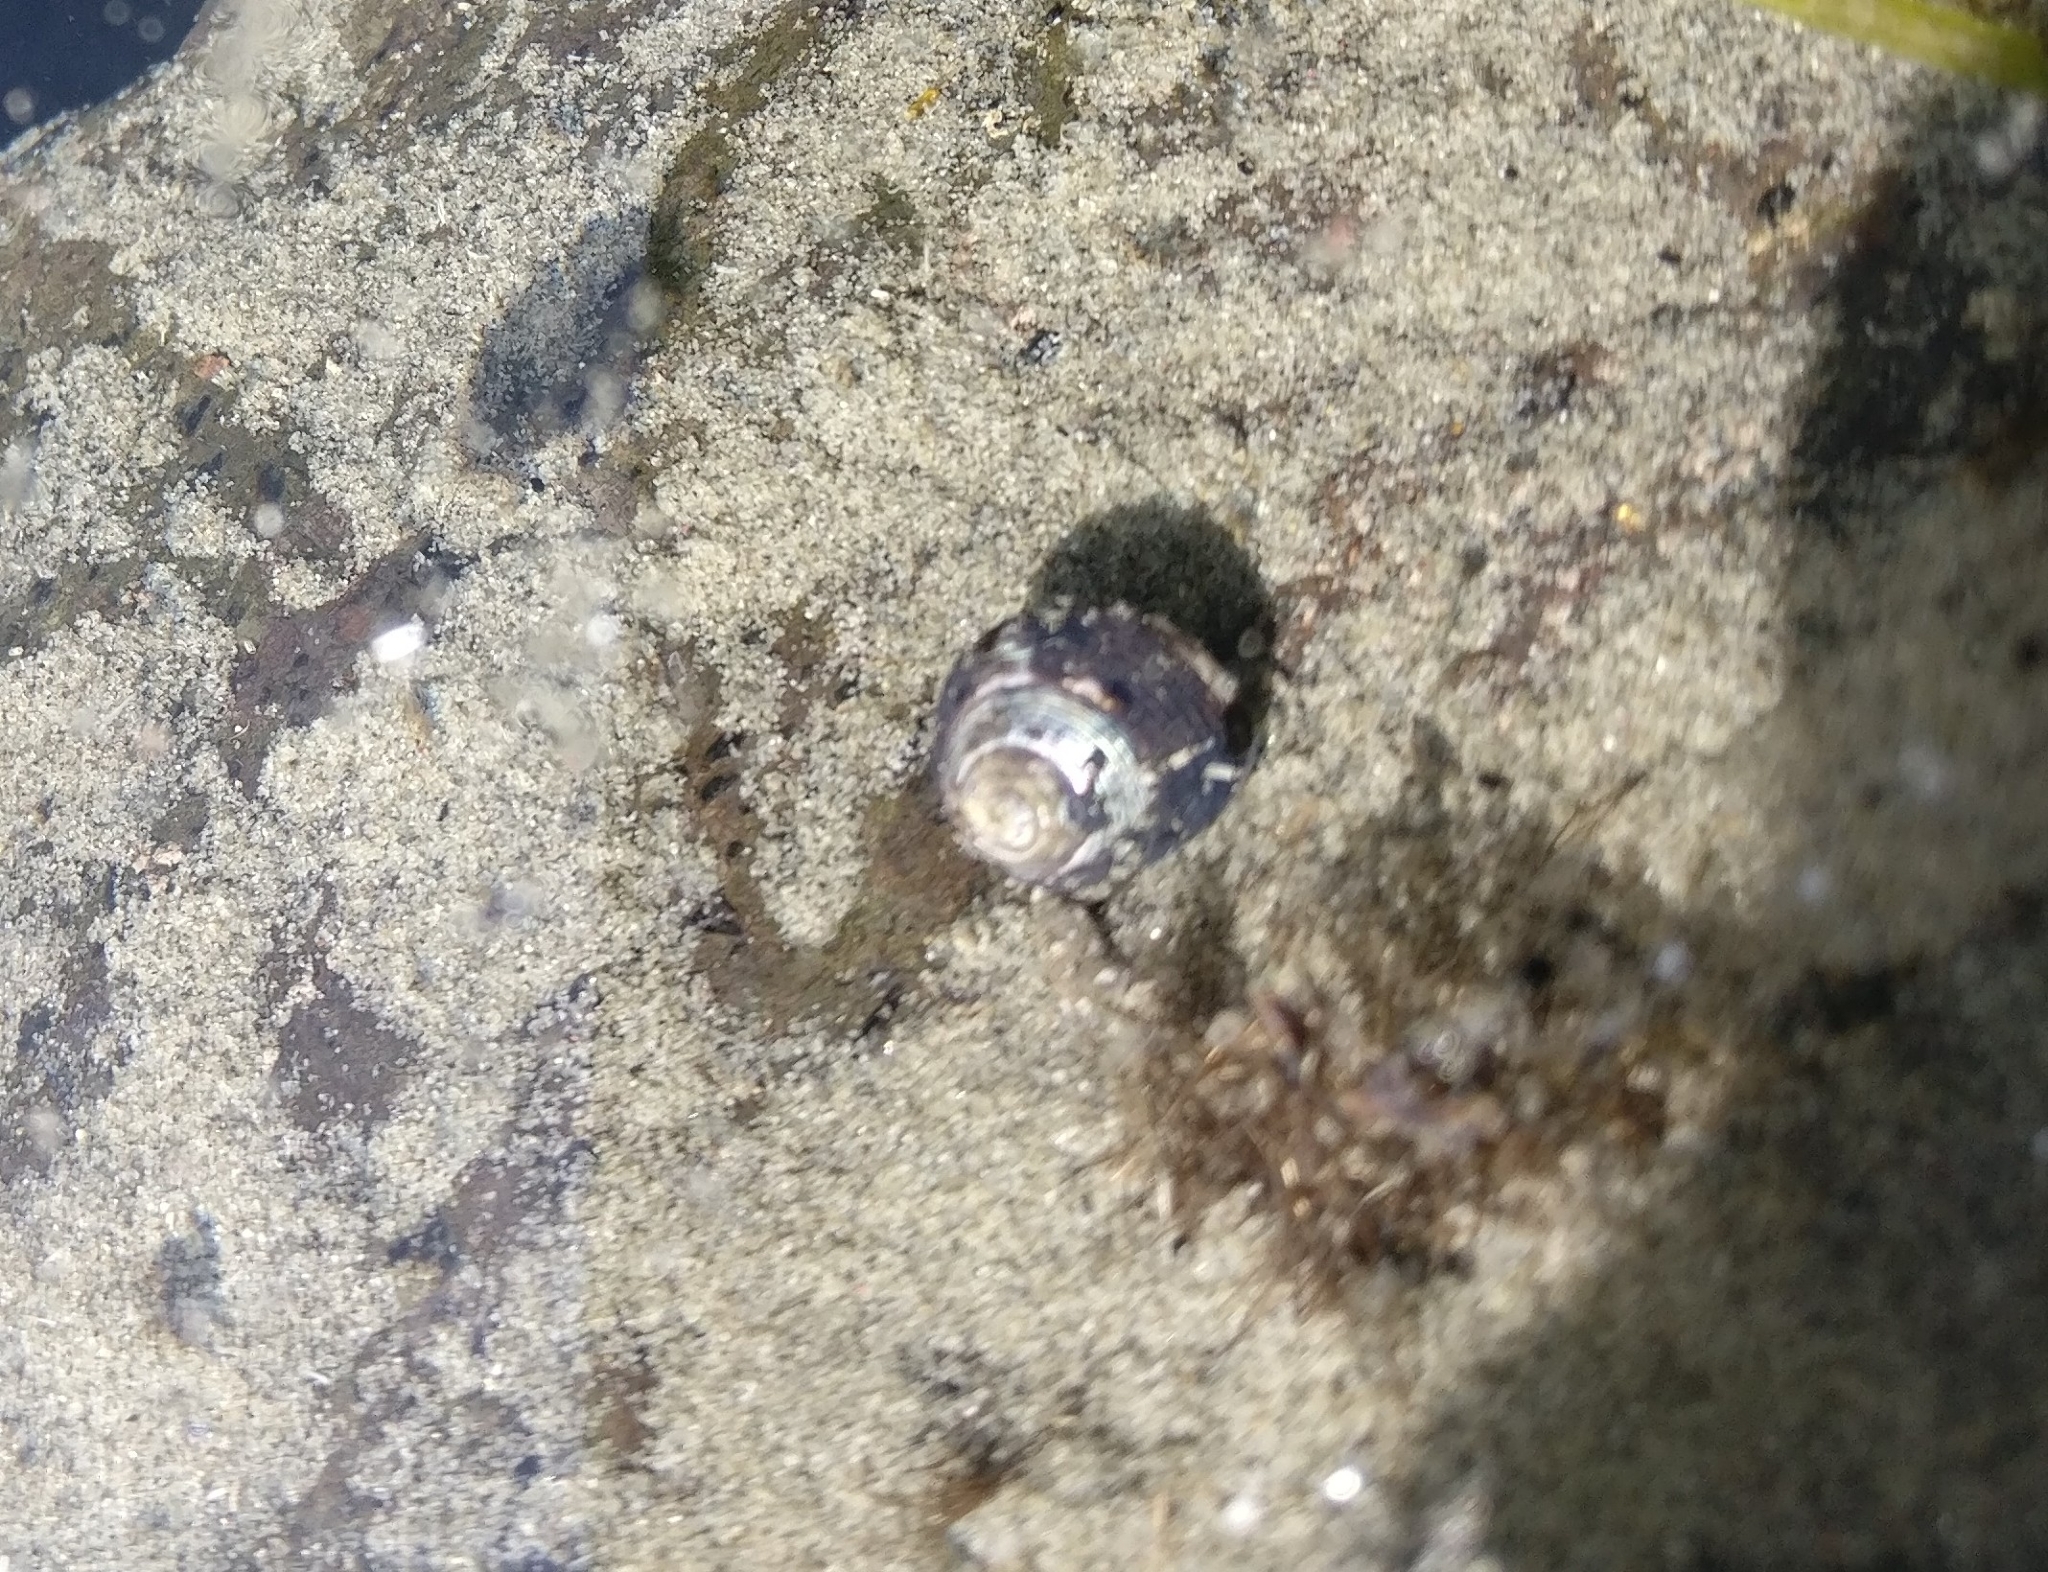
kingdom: Animalia
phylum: Mollusca
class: Gastropoda
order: Trochida
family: Trochidae
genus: Micrelenchus
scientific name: Micrelenchus huttonii
